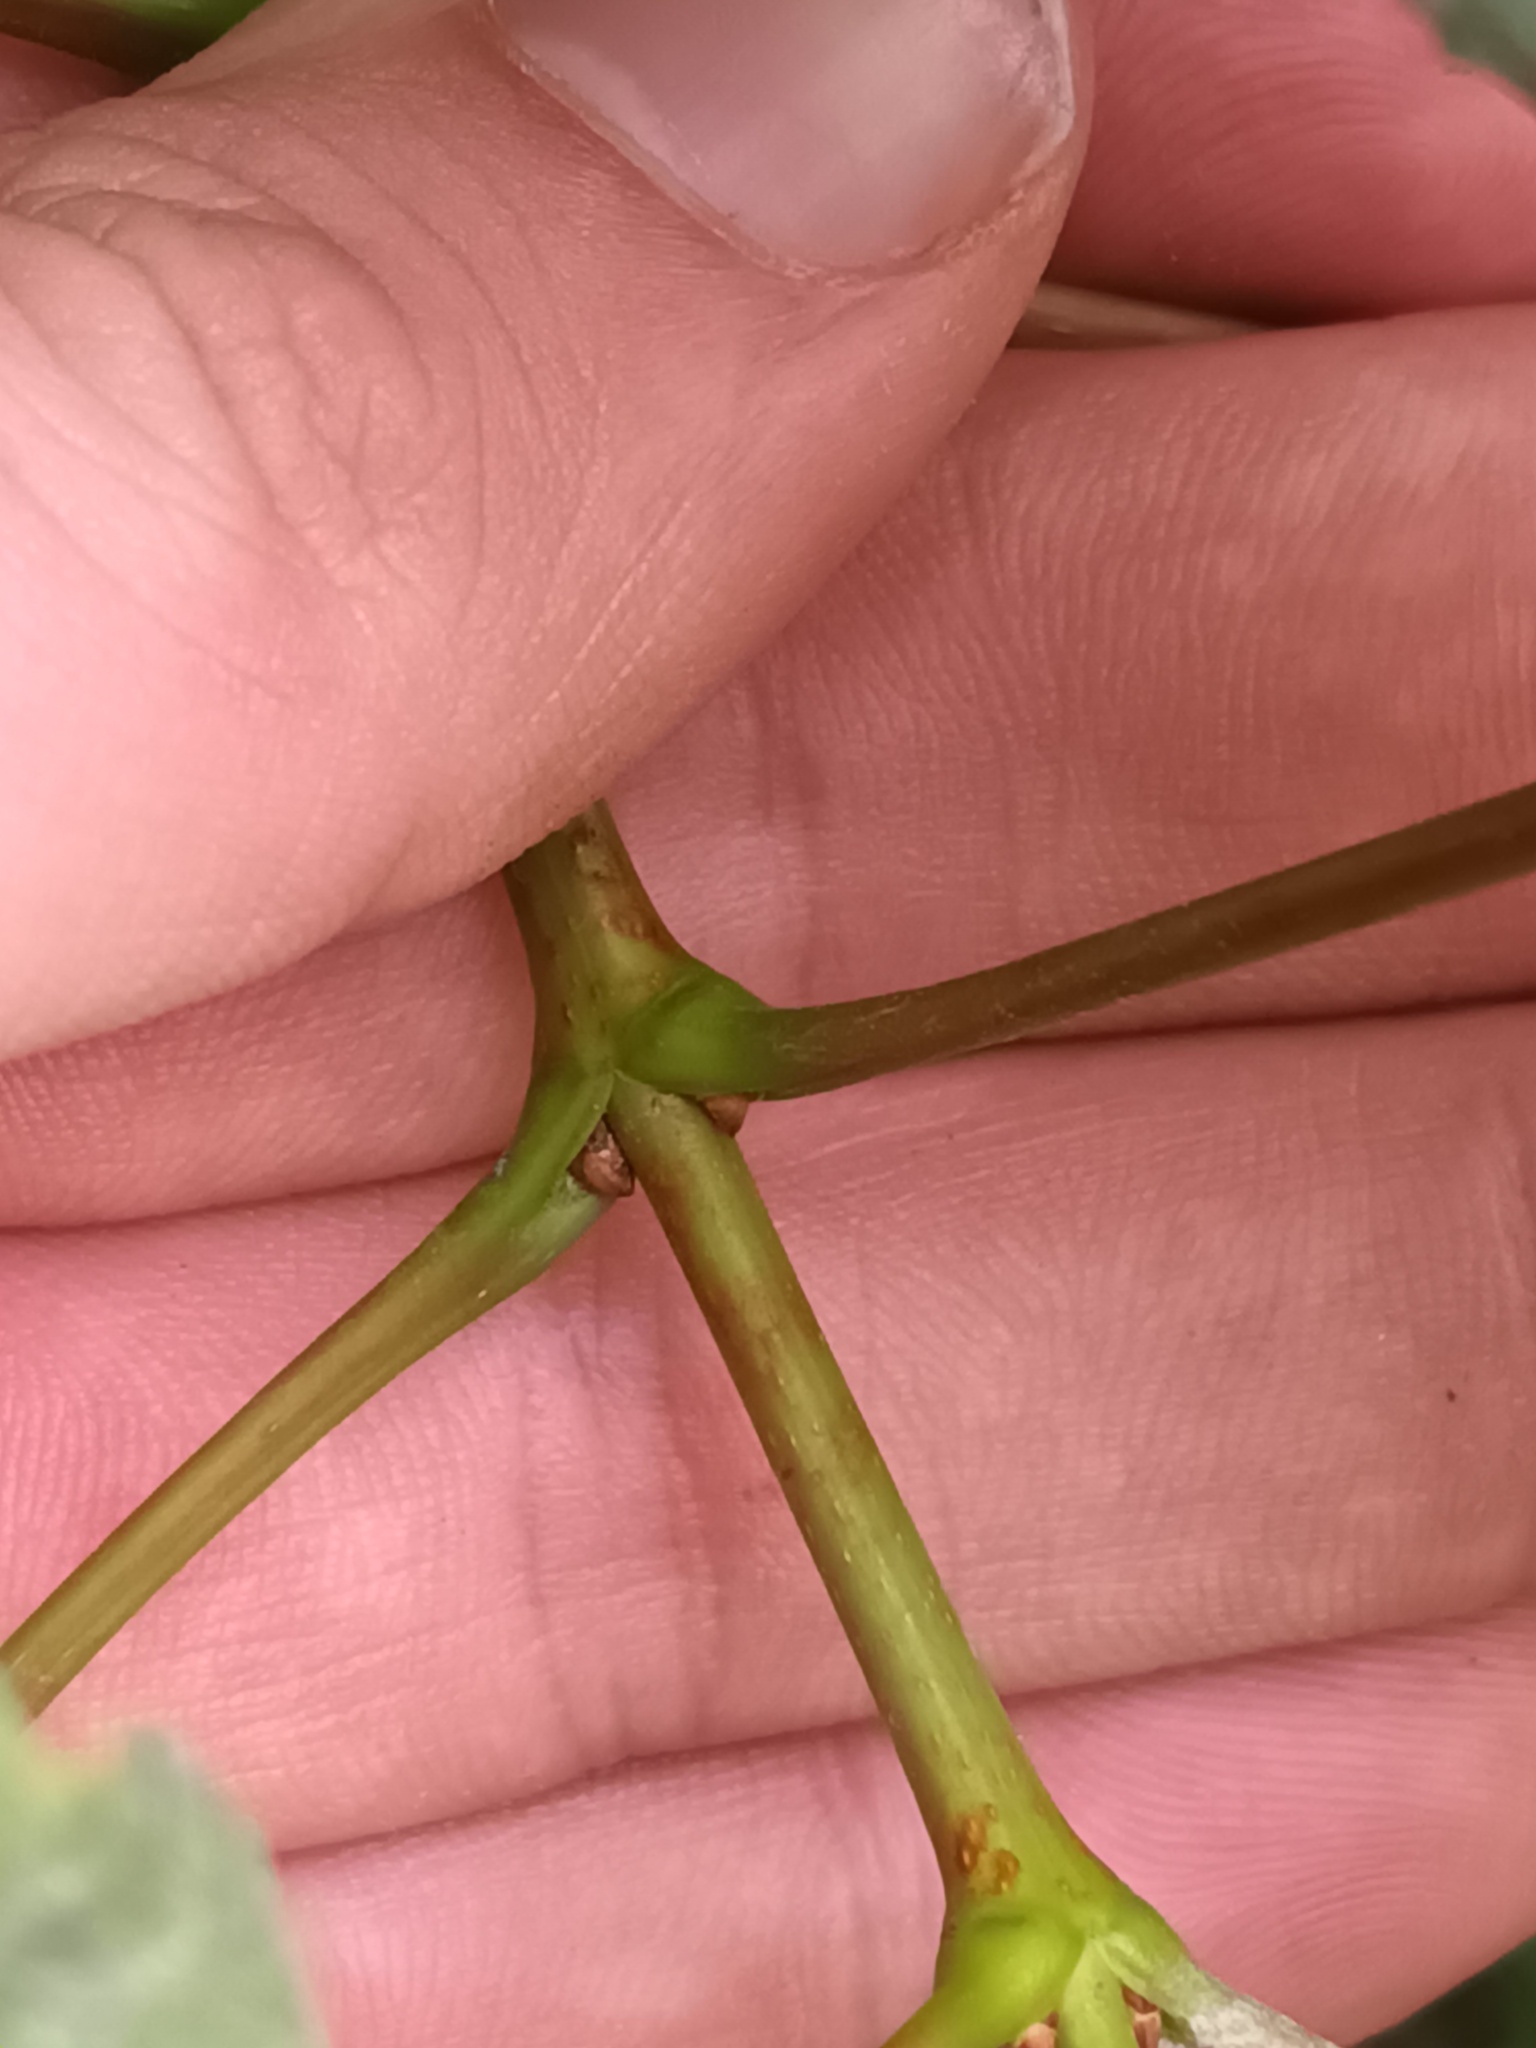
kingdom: Plantae
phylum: Tracheophyta
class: Magnoliopsida
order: Sapindales
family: Sapindaceae
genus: Acer
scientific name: Acer opalus
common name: Italian maple
